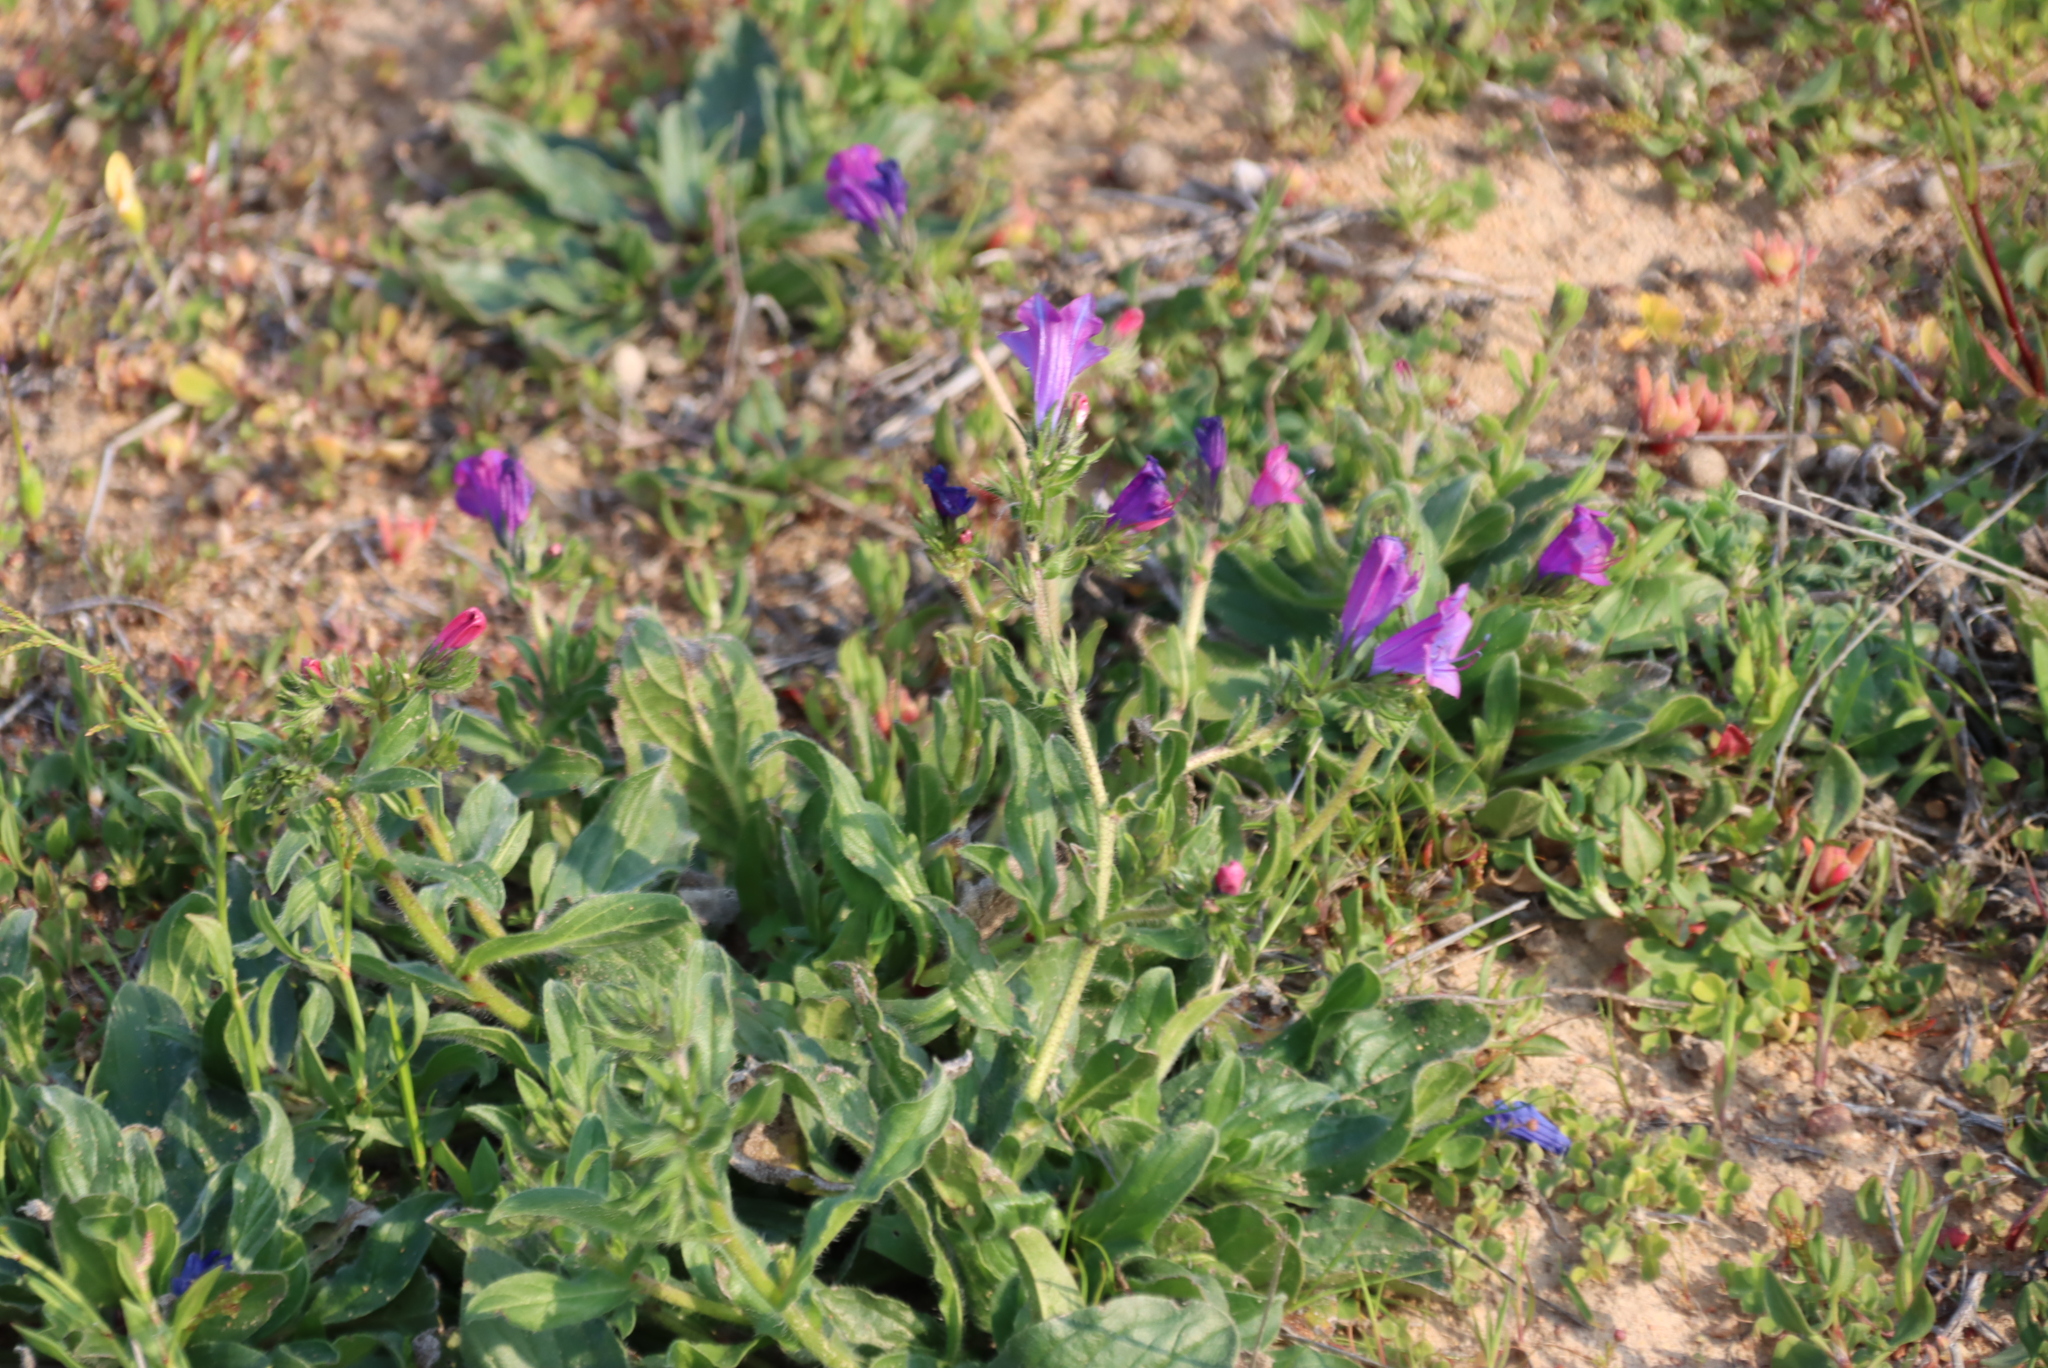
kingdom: Plantae
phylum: Tracheophyta
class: Magnoliopsida
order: Boraginales
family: Boraginaceae
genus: Echium
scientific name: Echium plantagineum
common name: Purple viper's-bugloss
